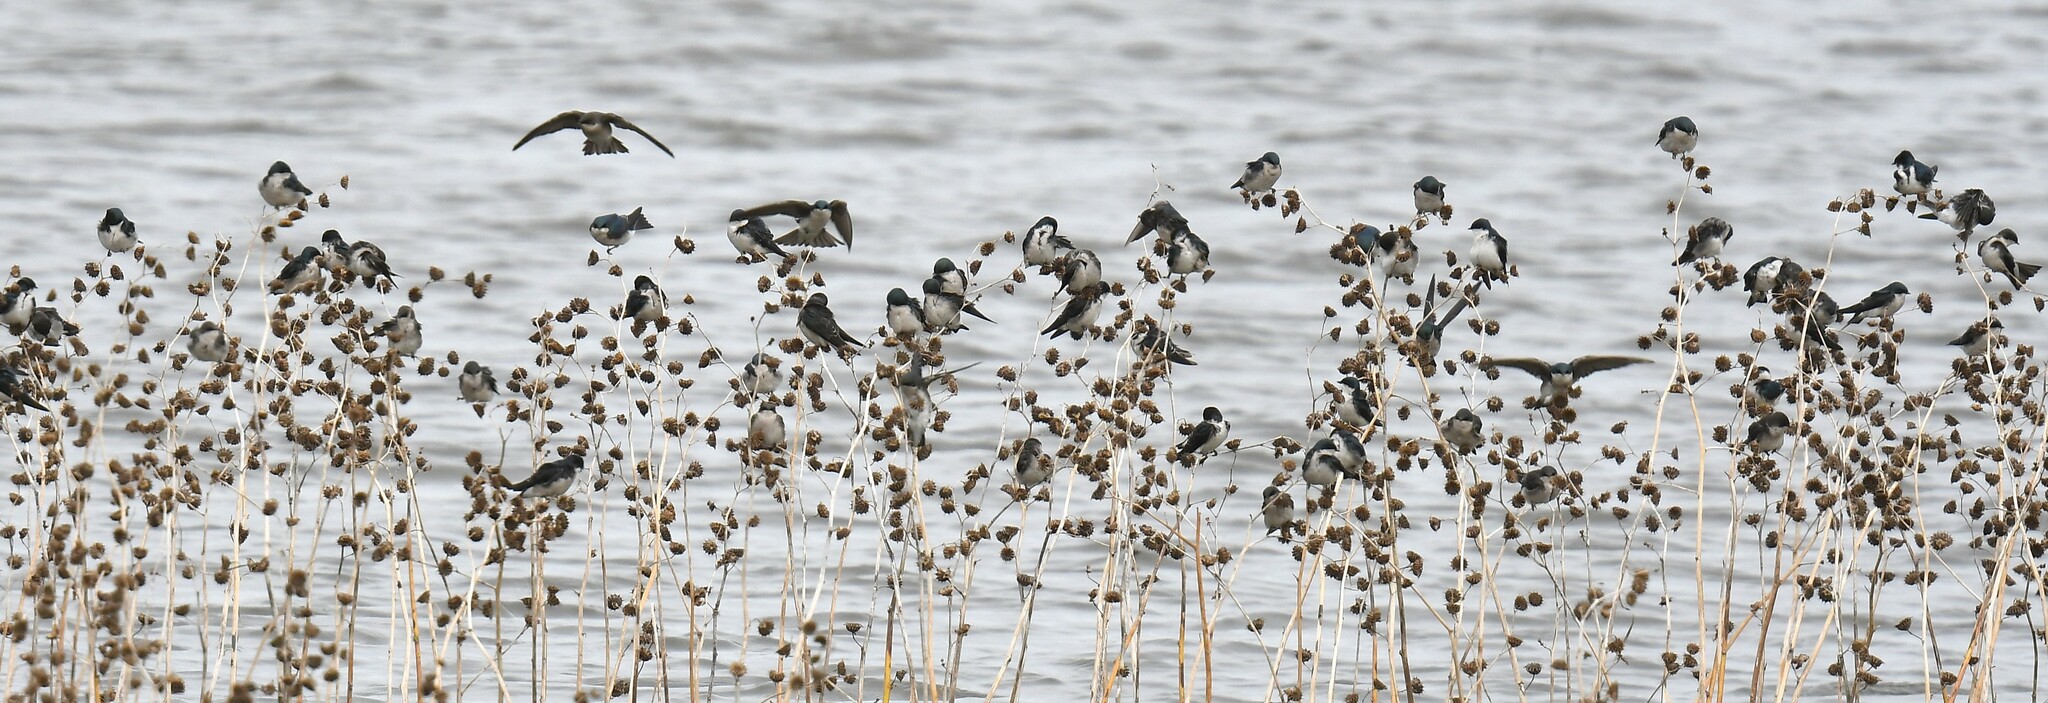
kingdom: Animalia
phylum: Chordata
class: Aves
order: Passeriformes
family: Hirundinidae
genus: Tachycineta
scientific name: Tachycineta bicolor
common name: Tree swallow
